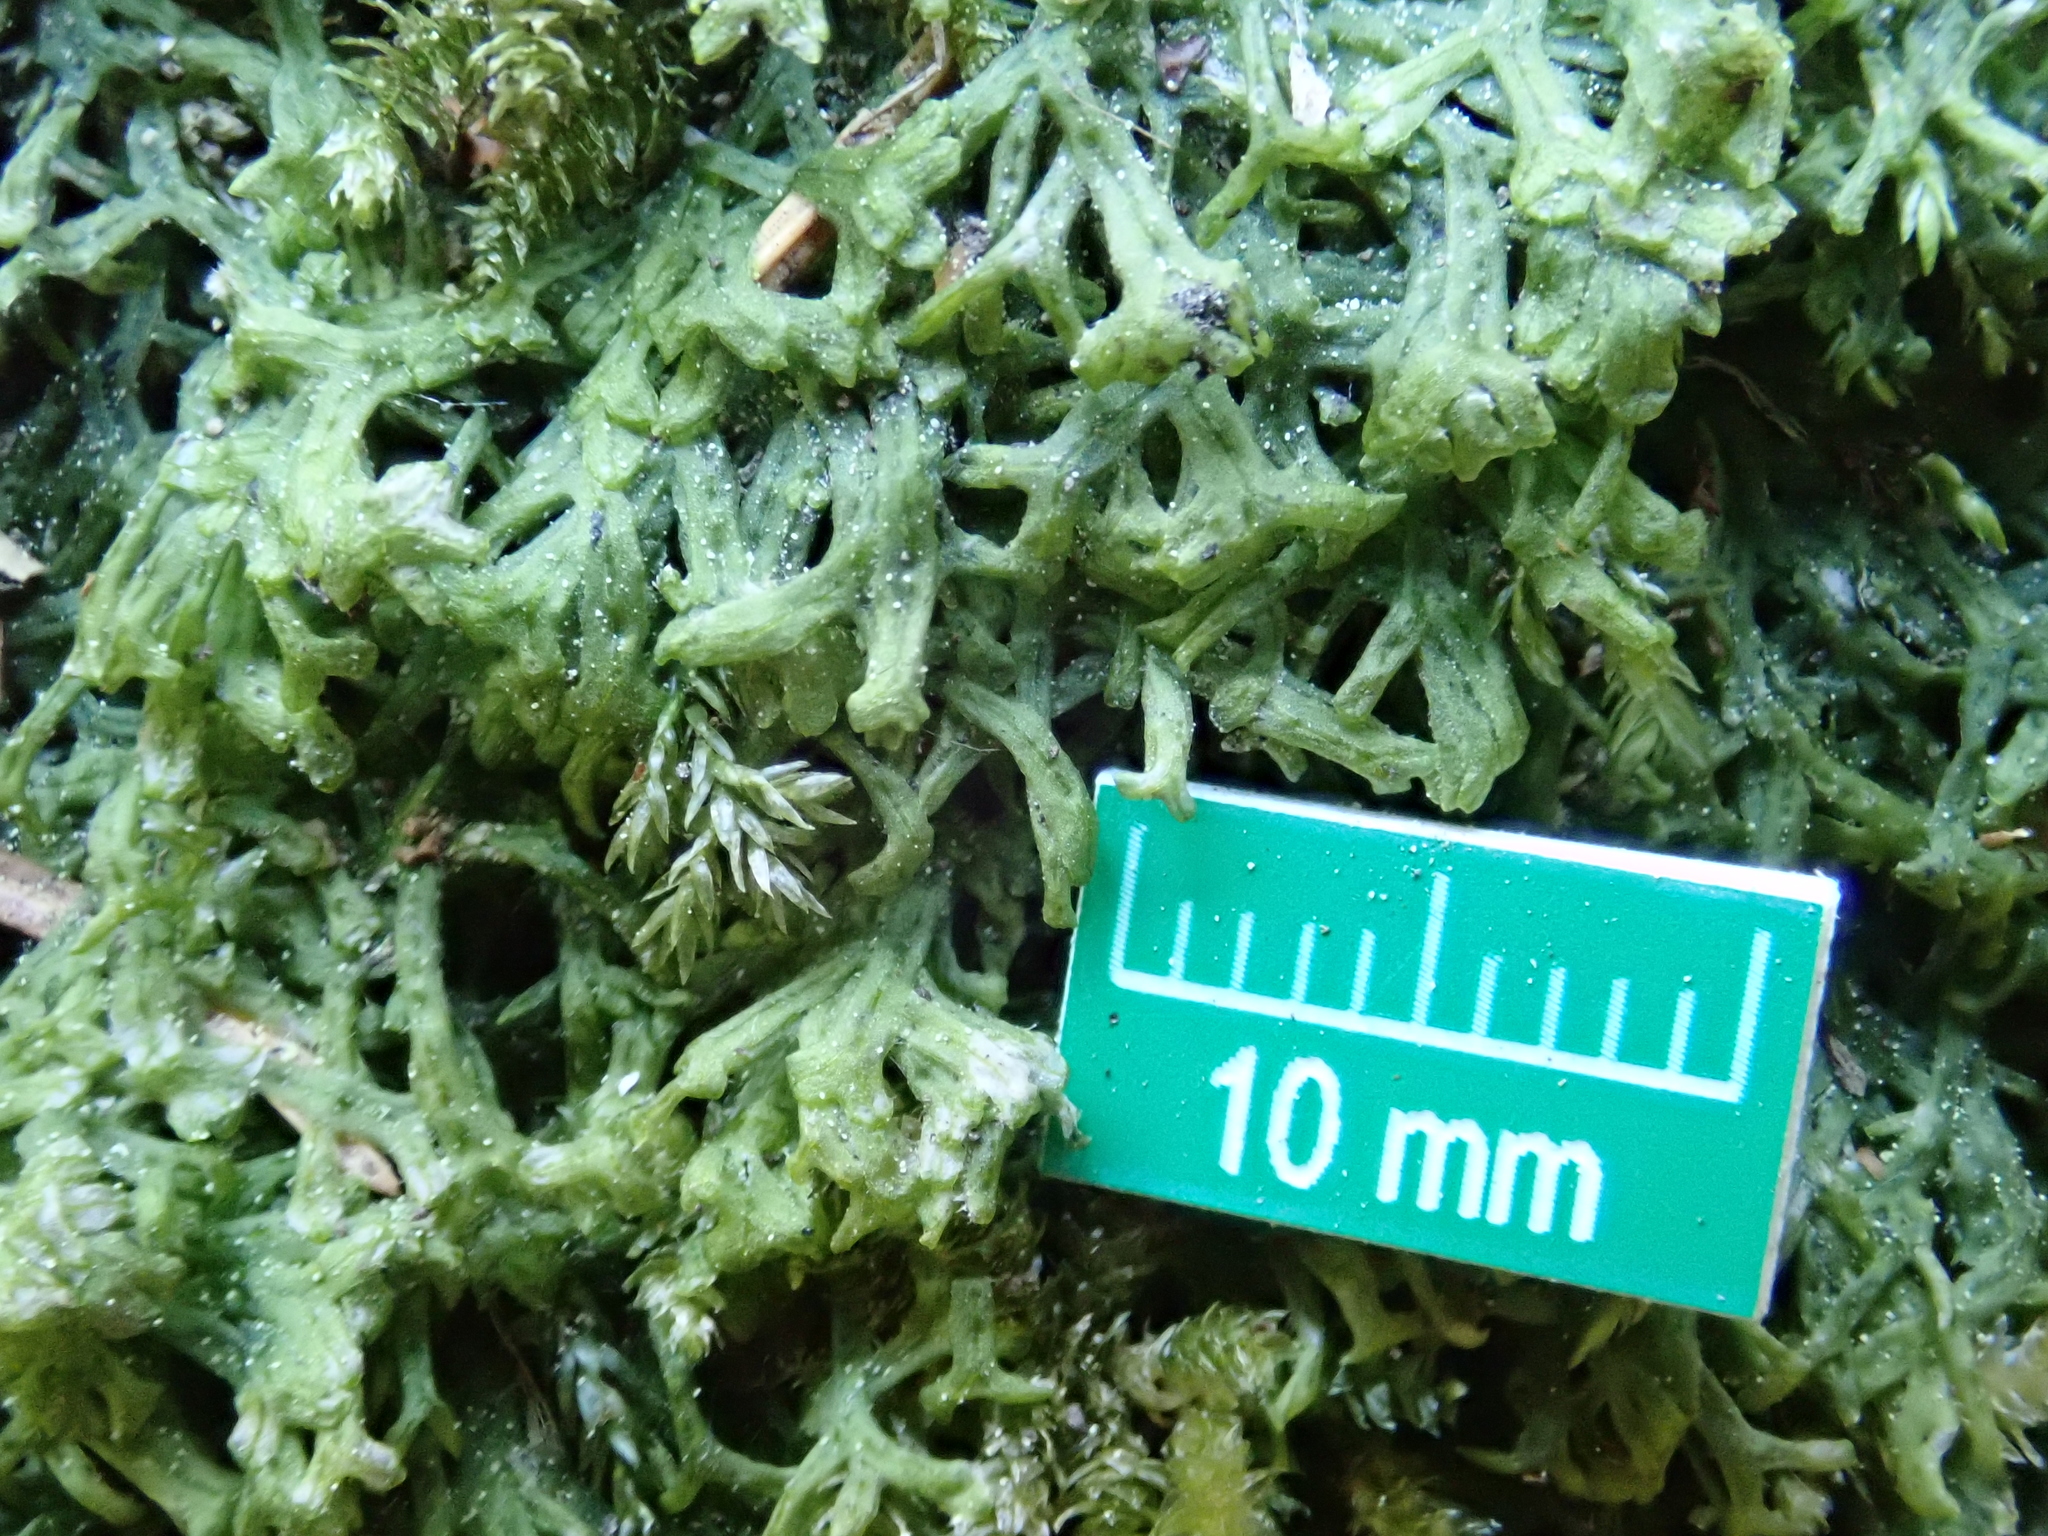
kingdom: Plantae
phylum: Marchantiophyta
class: Jungermanniopsida
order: Metzgeriales
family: Metzgeriaceae
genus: Metzgeria
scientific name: Metzgeria conjugata
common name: Rock veilwort
